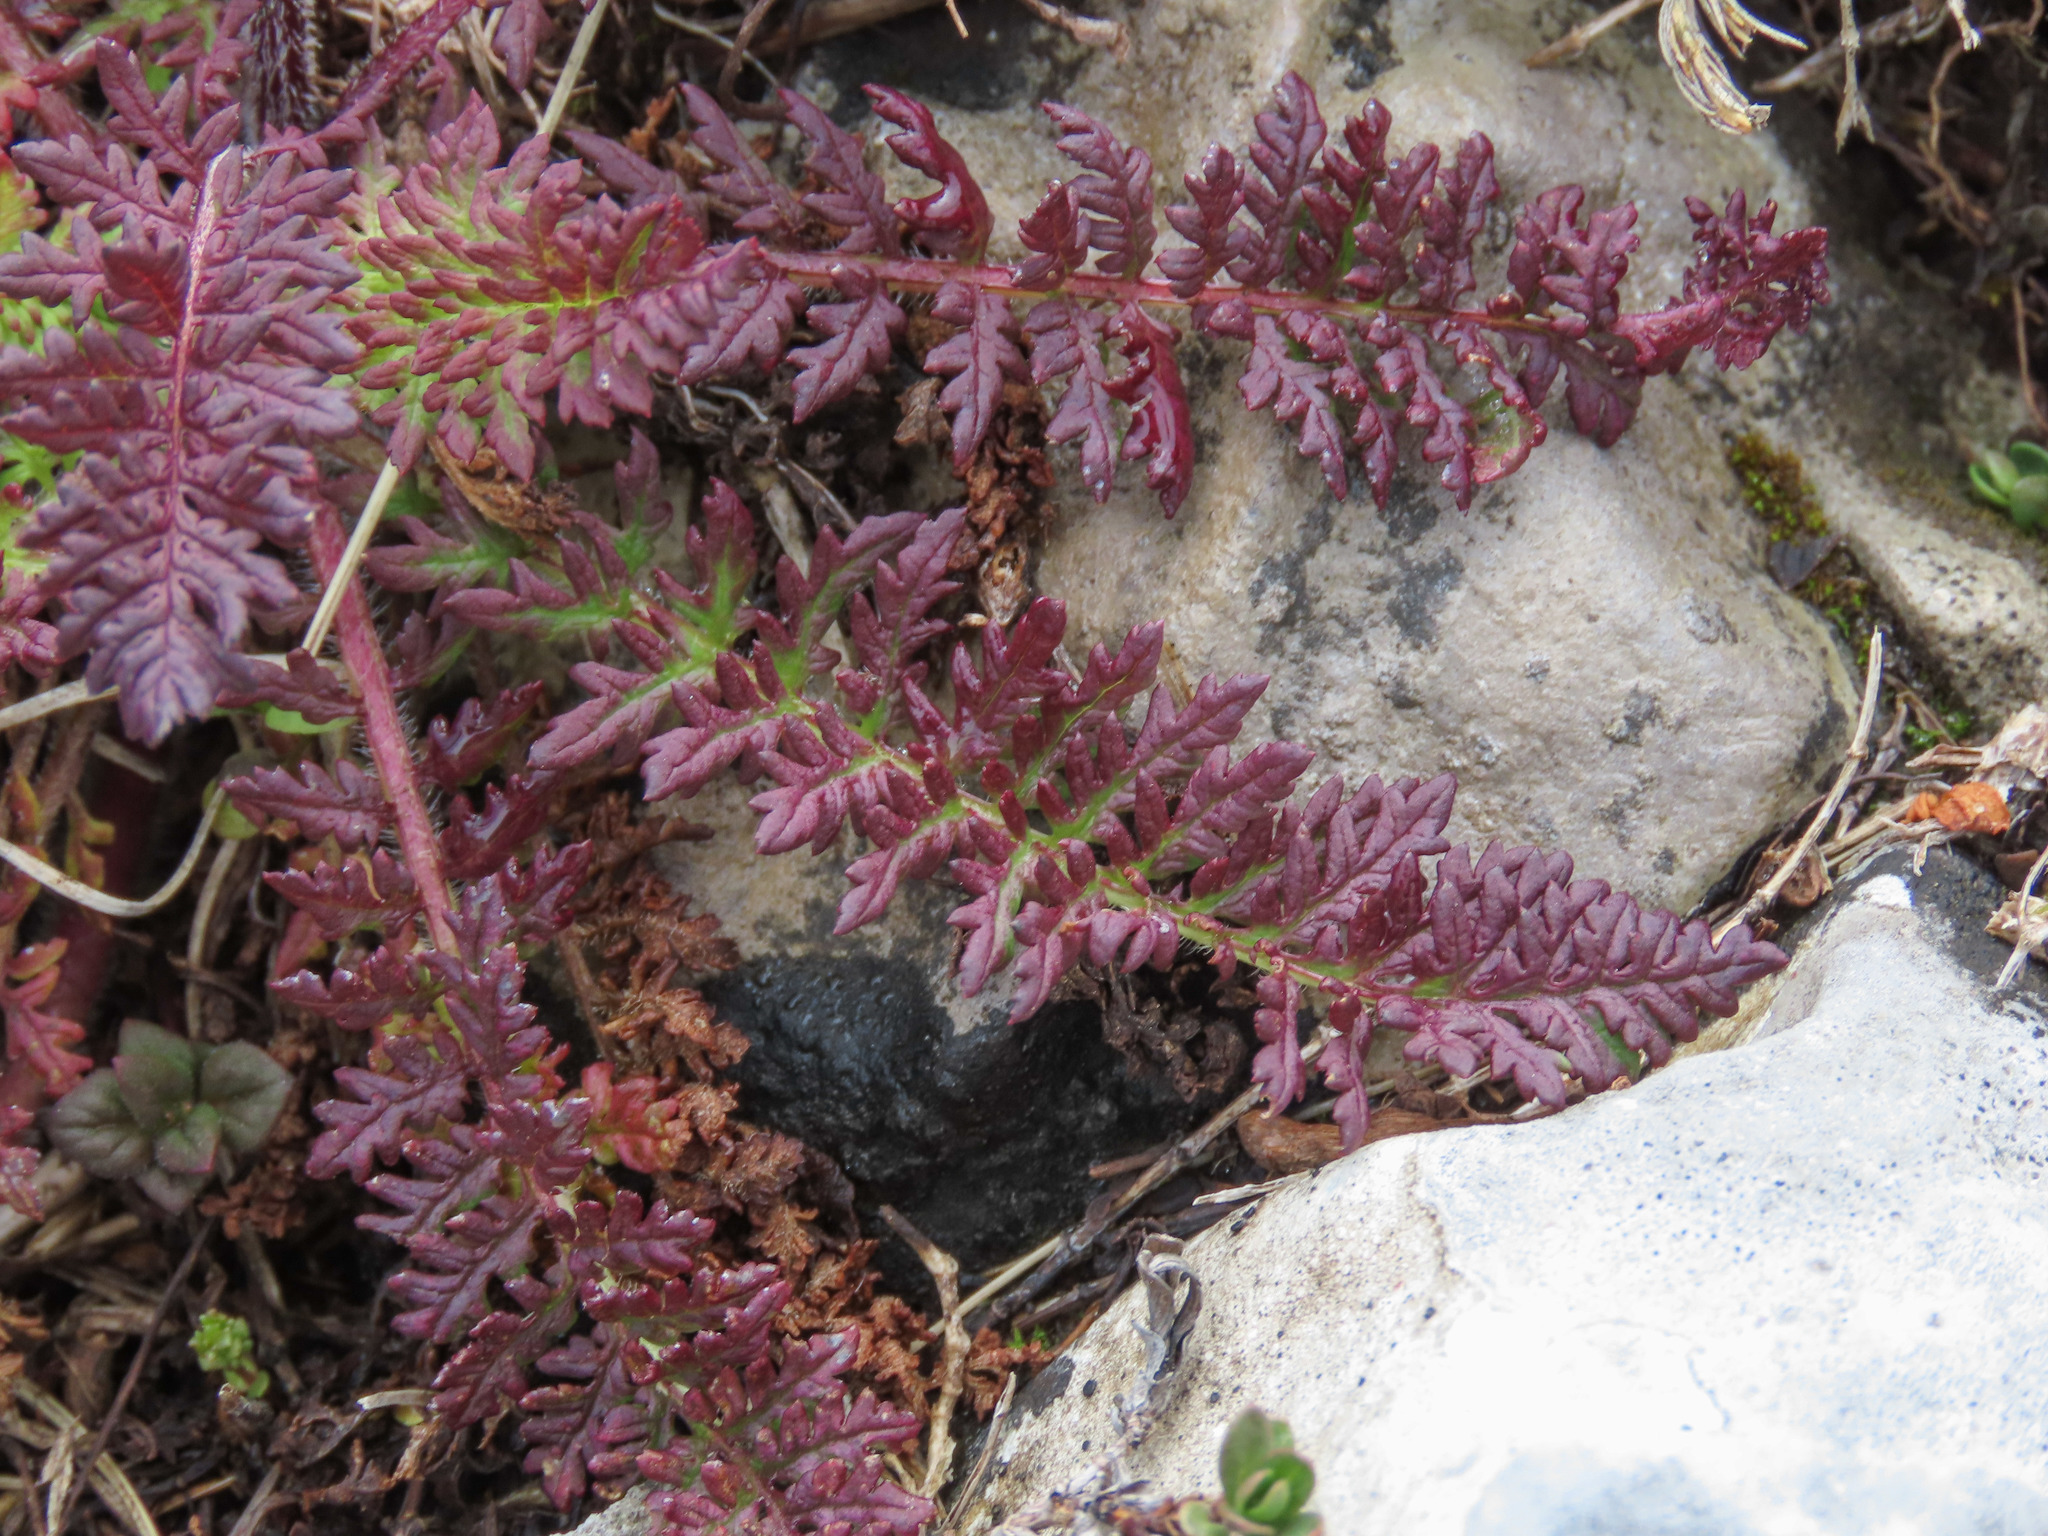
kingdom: Plantae
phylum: Tracheophyta
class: Magnoliopsida
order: Lamiales
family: Orobanchaceae
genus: Pedicularis
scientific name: Pedicularis tuberosa
